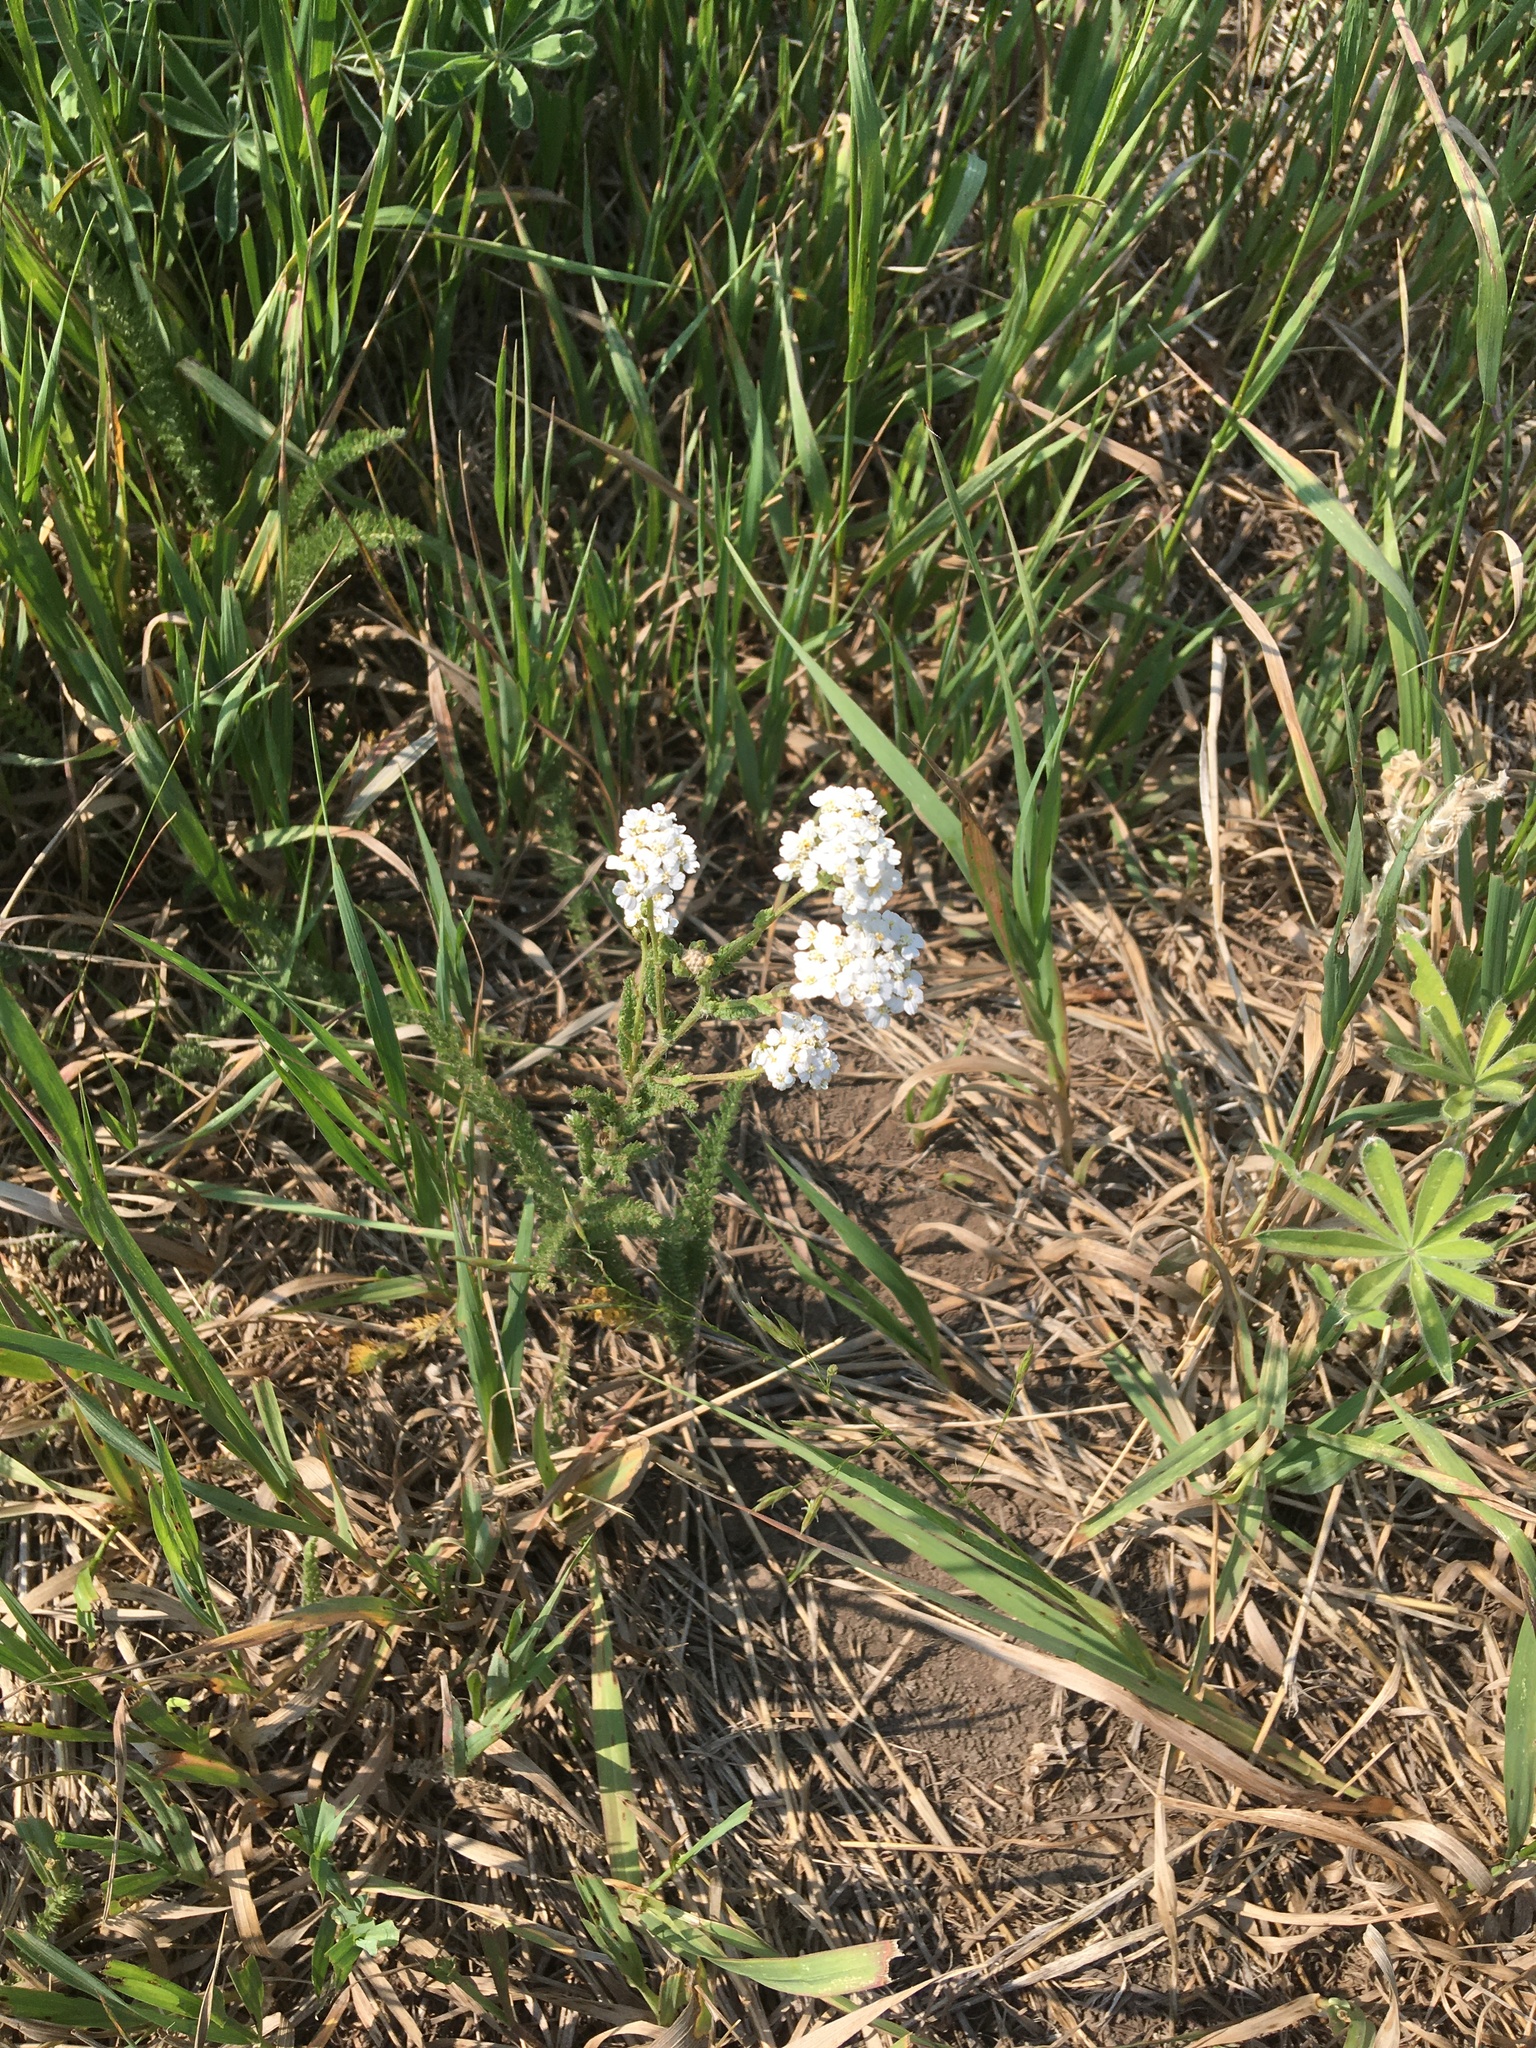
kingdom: Plantae
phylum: Tracheophyta
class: Magnoliopsida
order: Asterales
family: Asteraceae
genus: Achillea
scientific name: Achillea millefolium
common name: Yarrow
